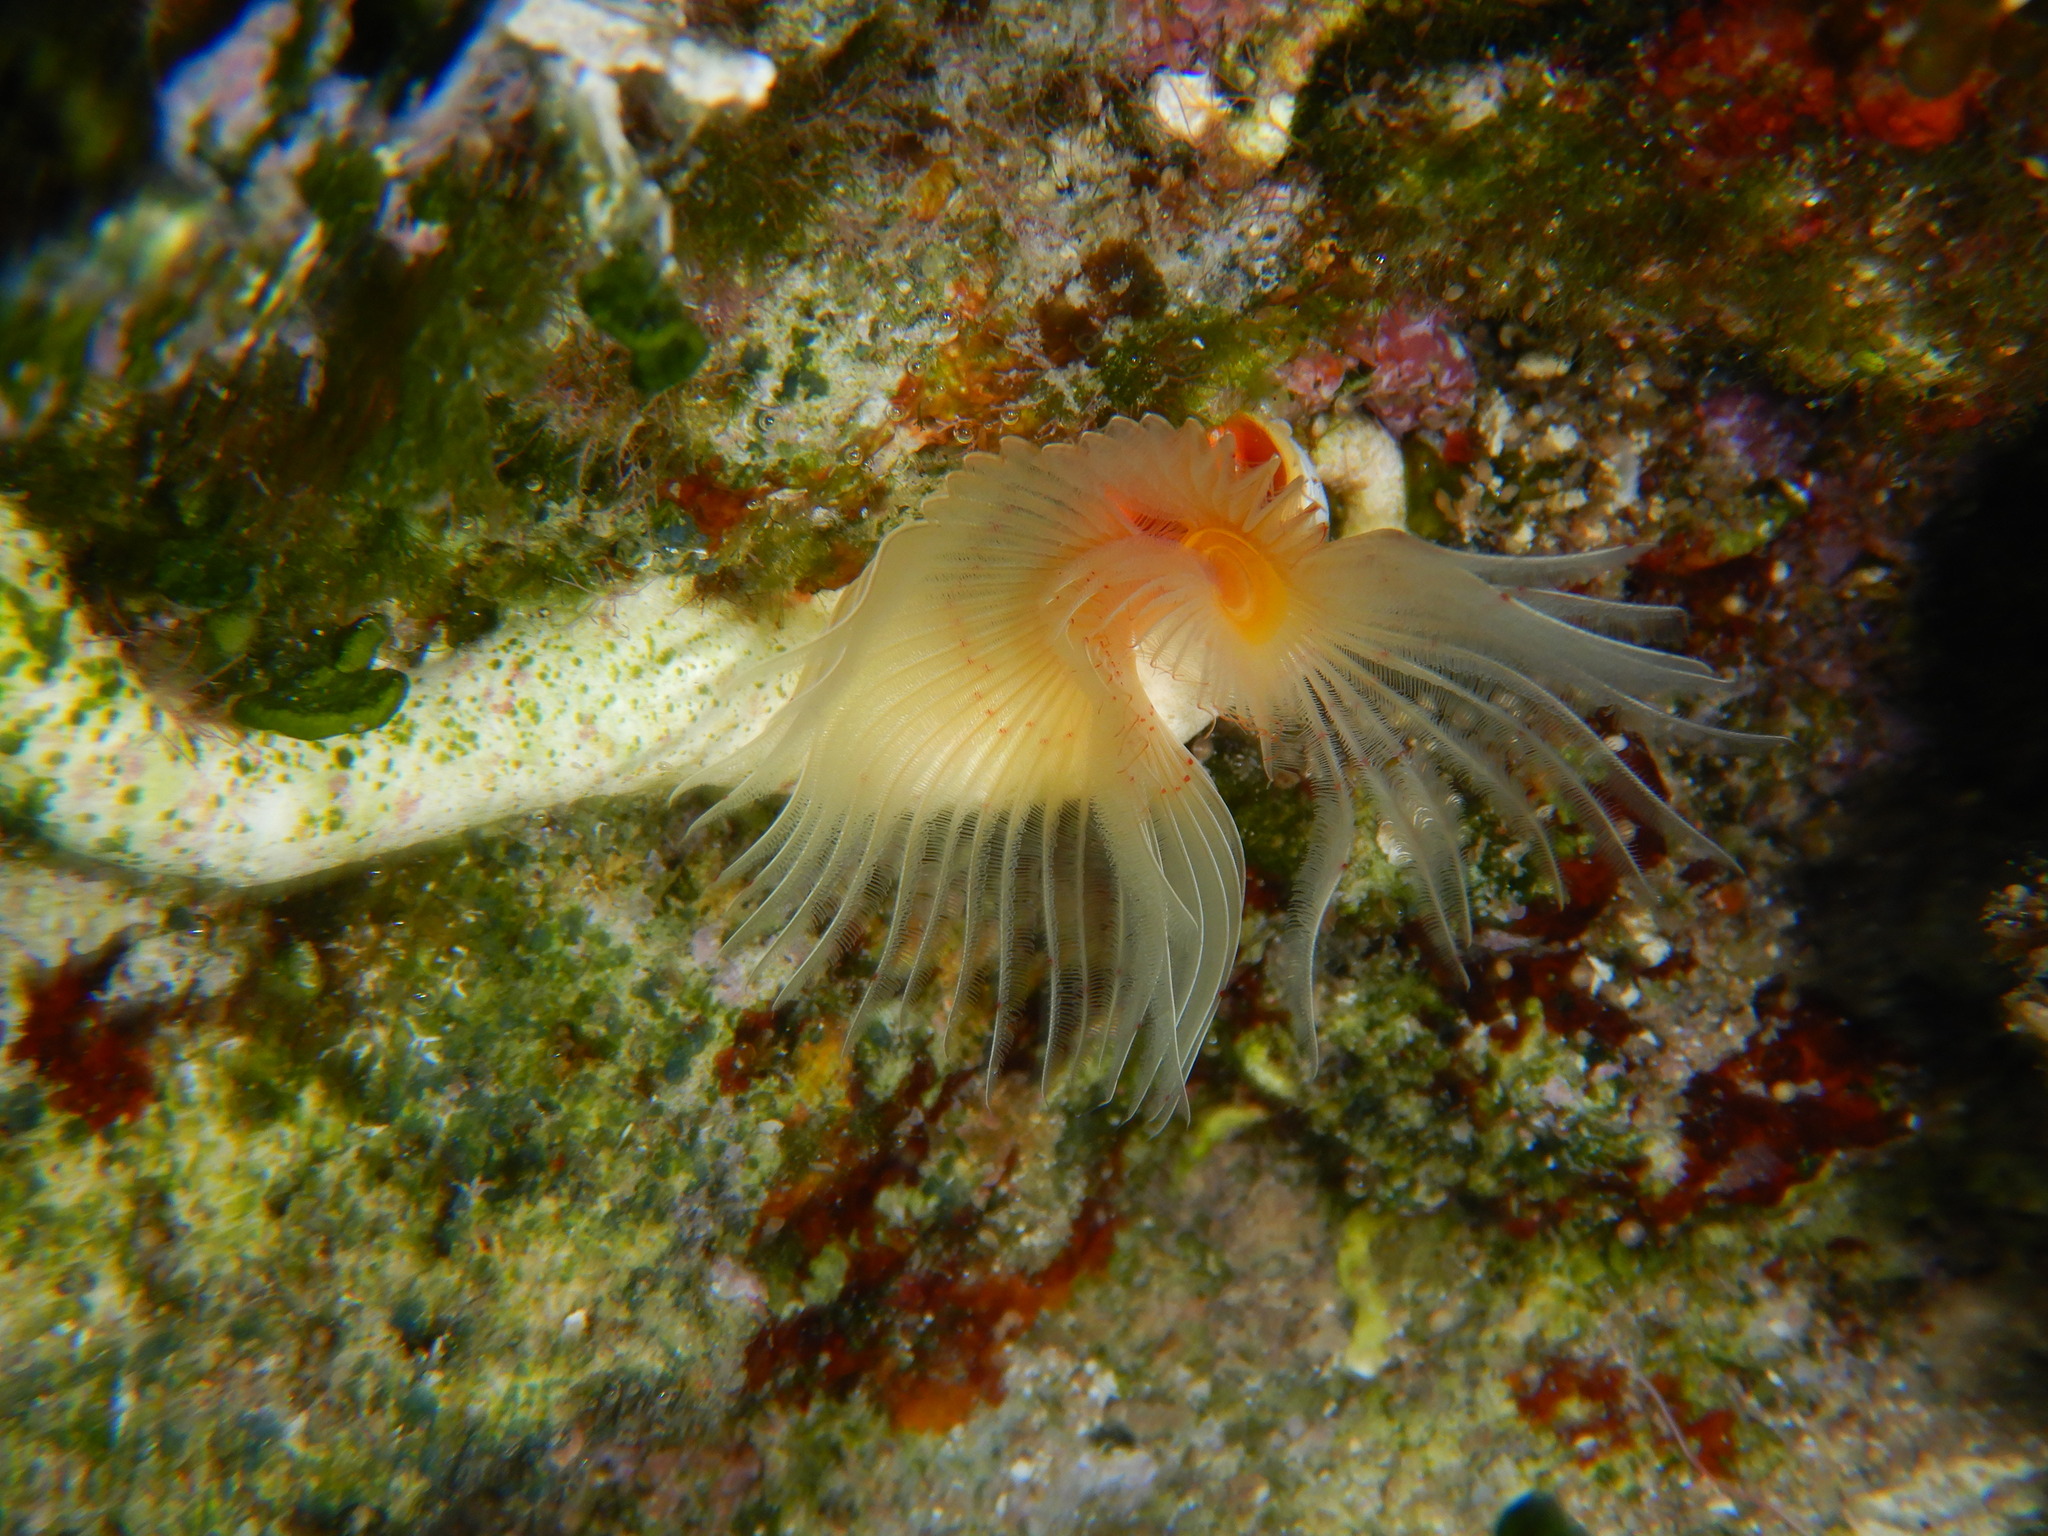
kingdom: Animalia
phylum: Annelida
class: Polychaeta
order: Sabellida
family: Serpulidae
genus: Protula
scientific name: Protula tubularia
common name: Red-spotted horseshoe
